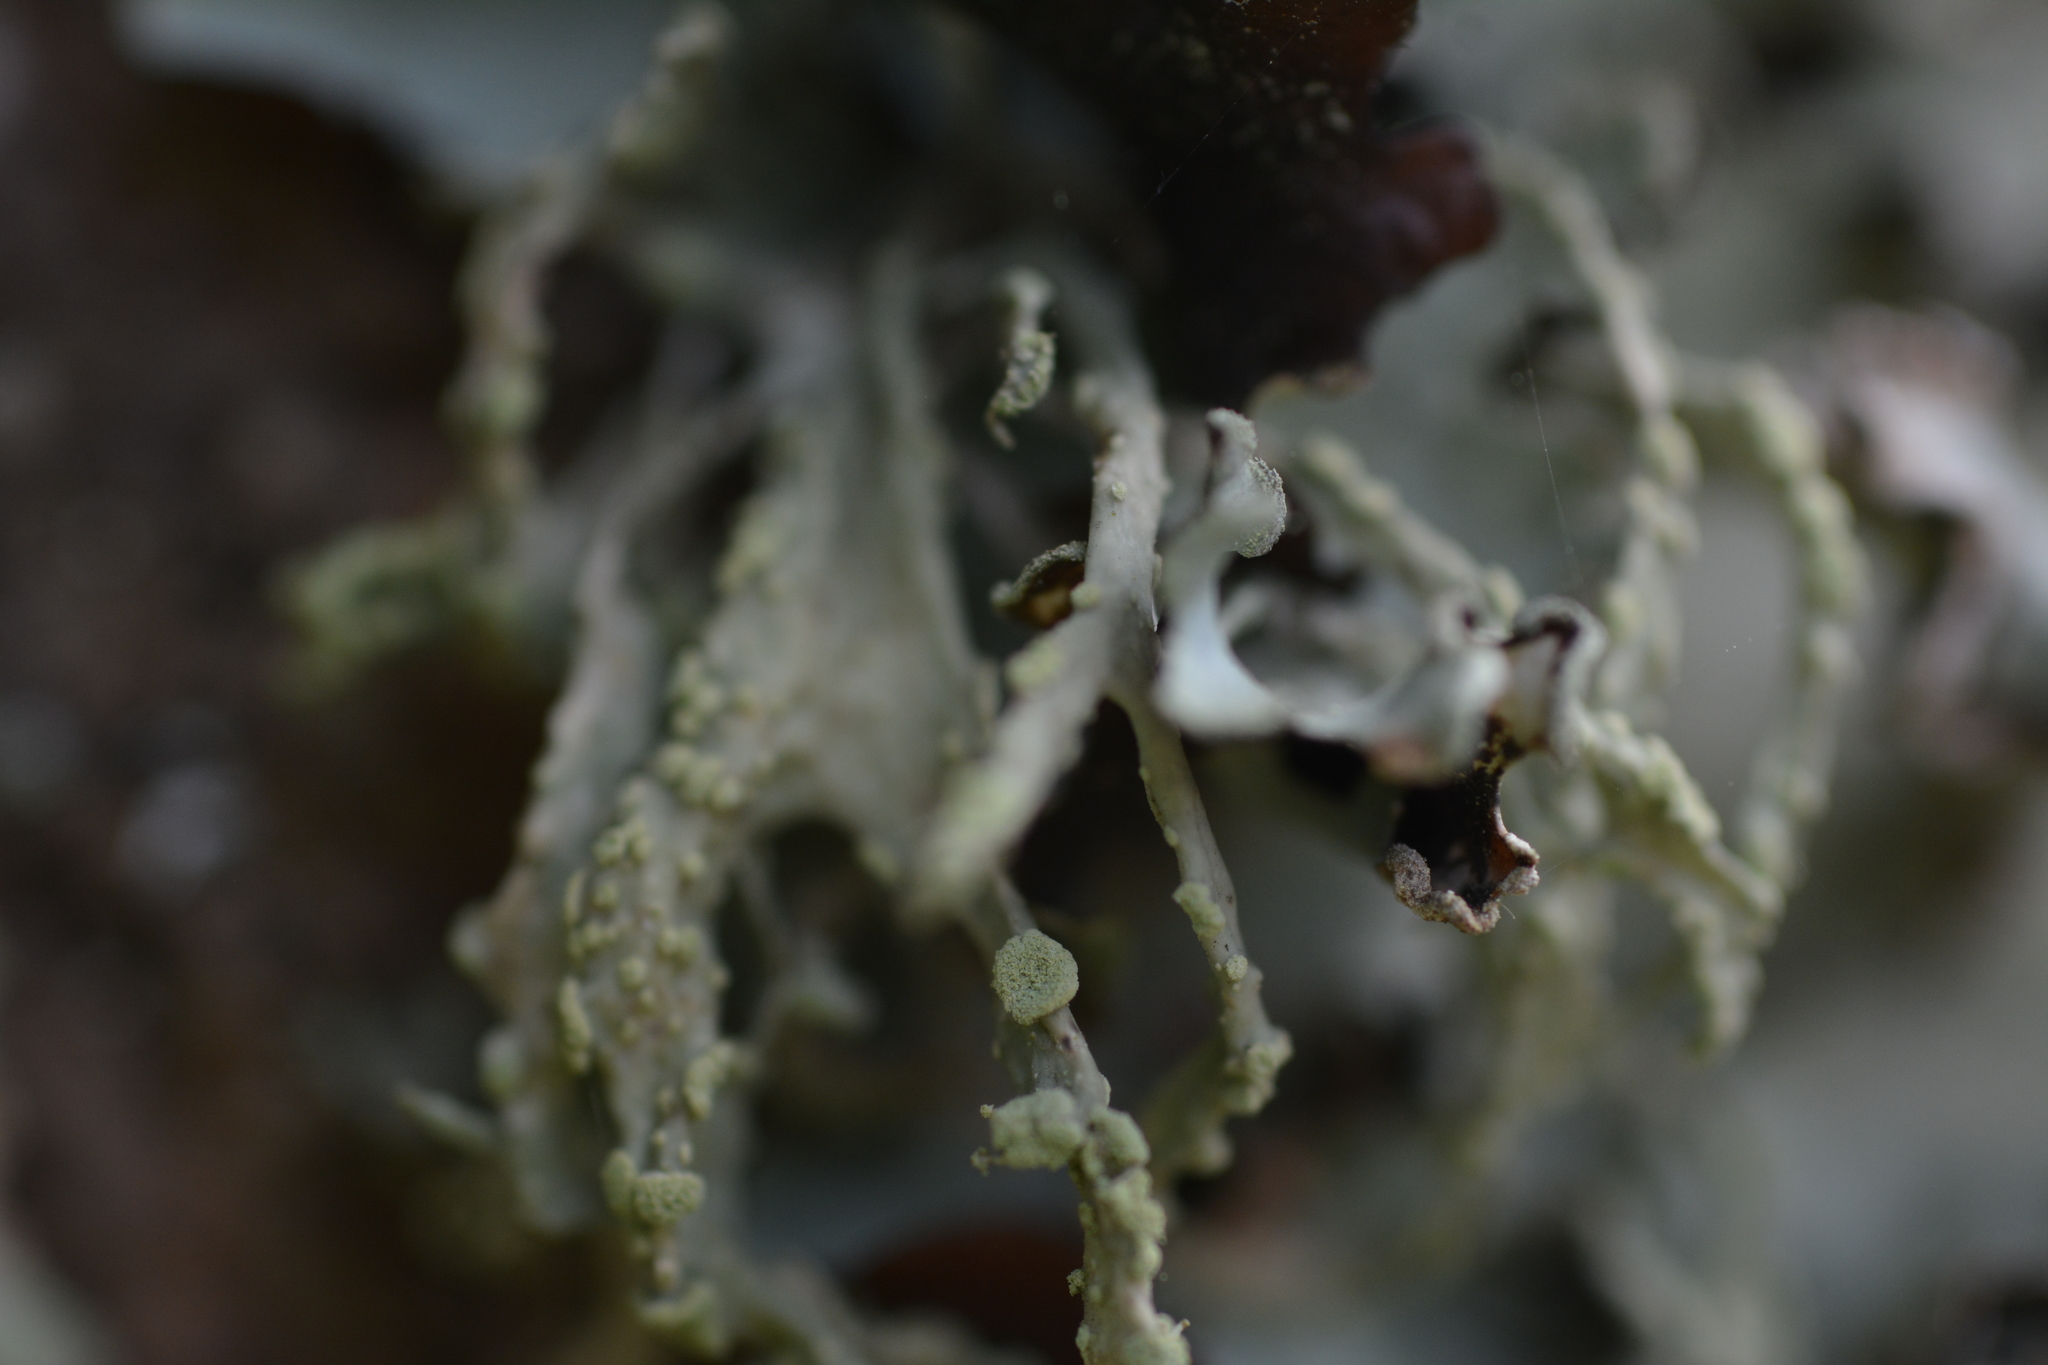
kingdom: Fungi
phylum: Ascomycota
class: Lecanoromycetes
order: Lecanorales
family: Ramalinaceae
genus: Ramalina
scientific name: Ramalina farinacea
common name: Farinose cartilage lichen
